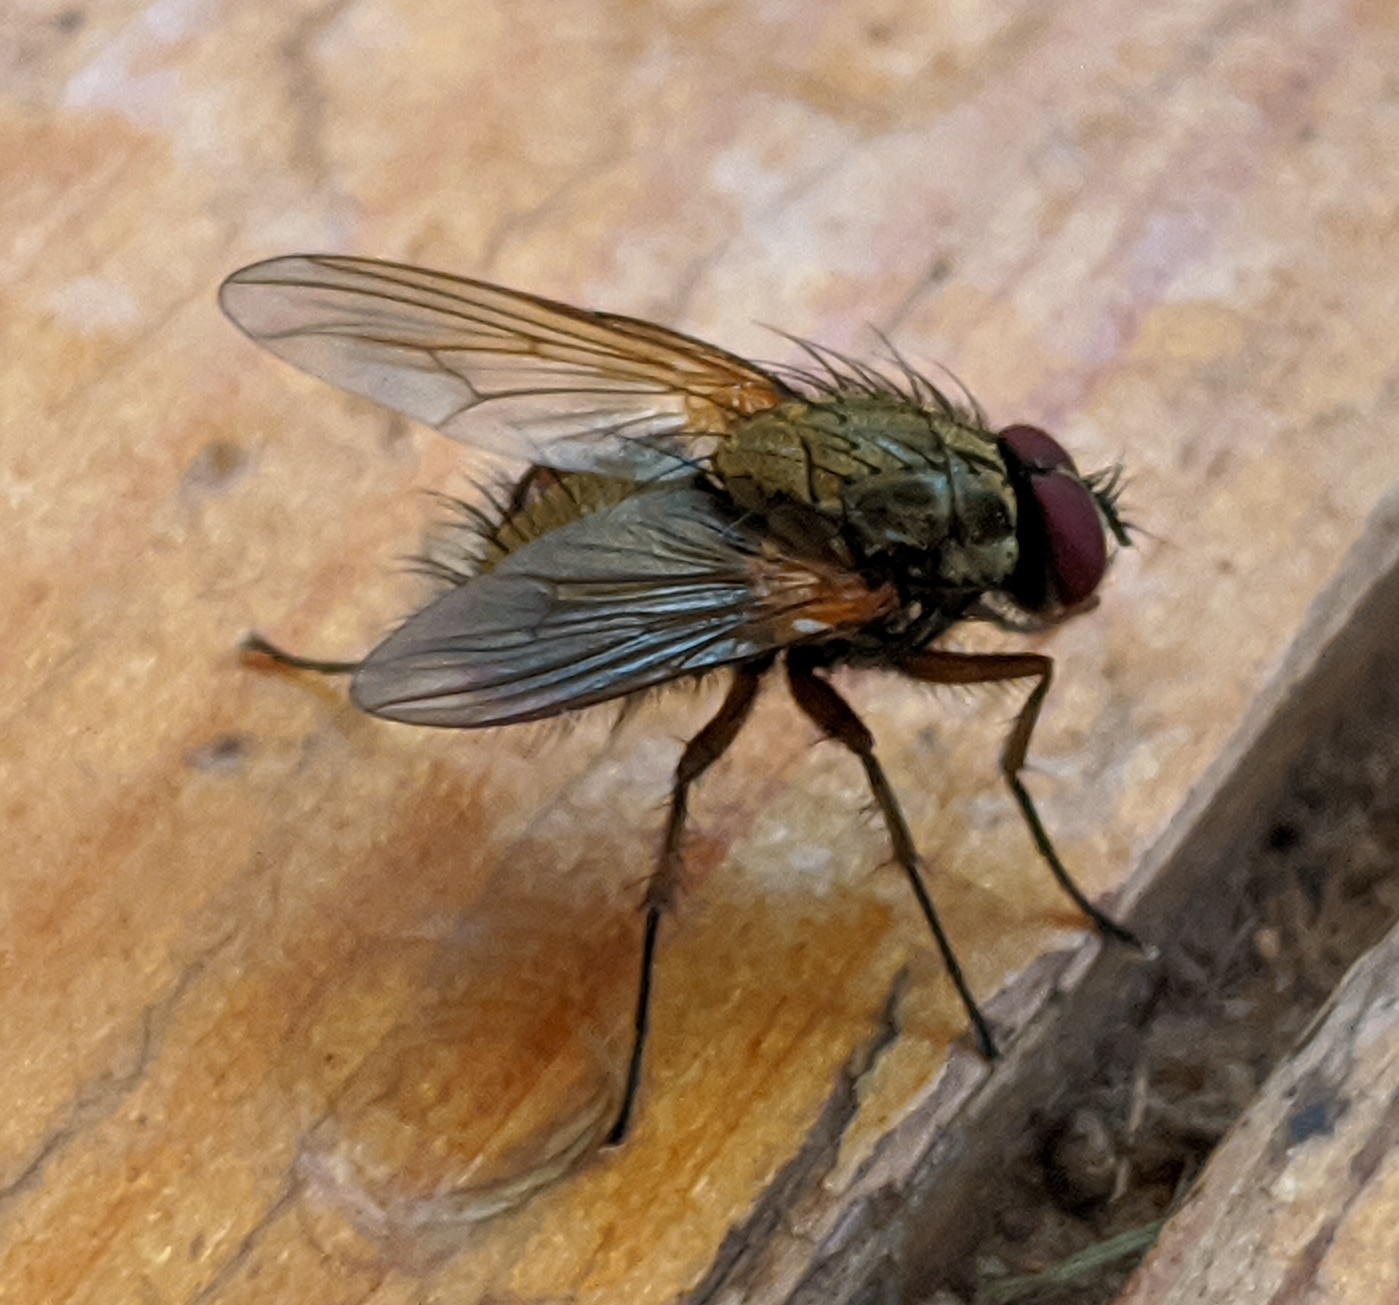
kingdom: Animalia
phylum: Arthropoda
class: Insecta
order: Diptera
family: Muscidae
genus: Phaonia
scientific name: Phaonia angelicae
